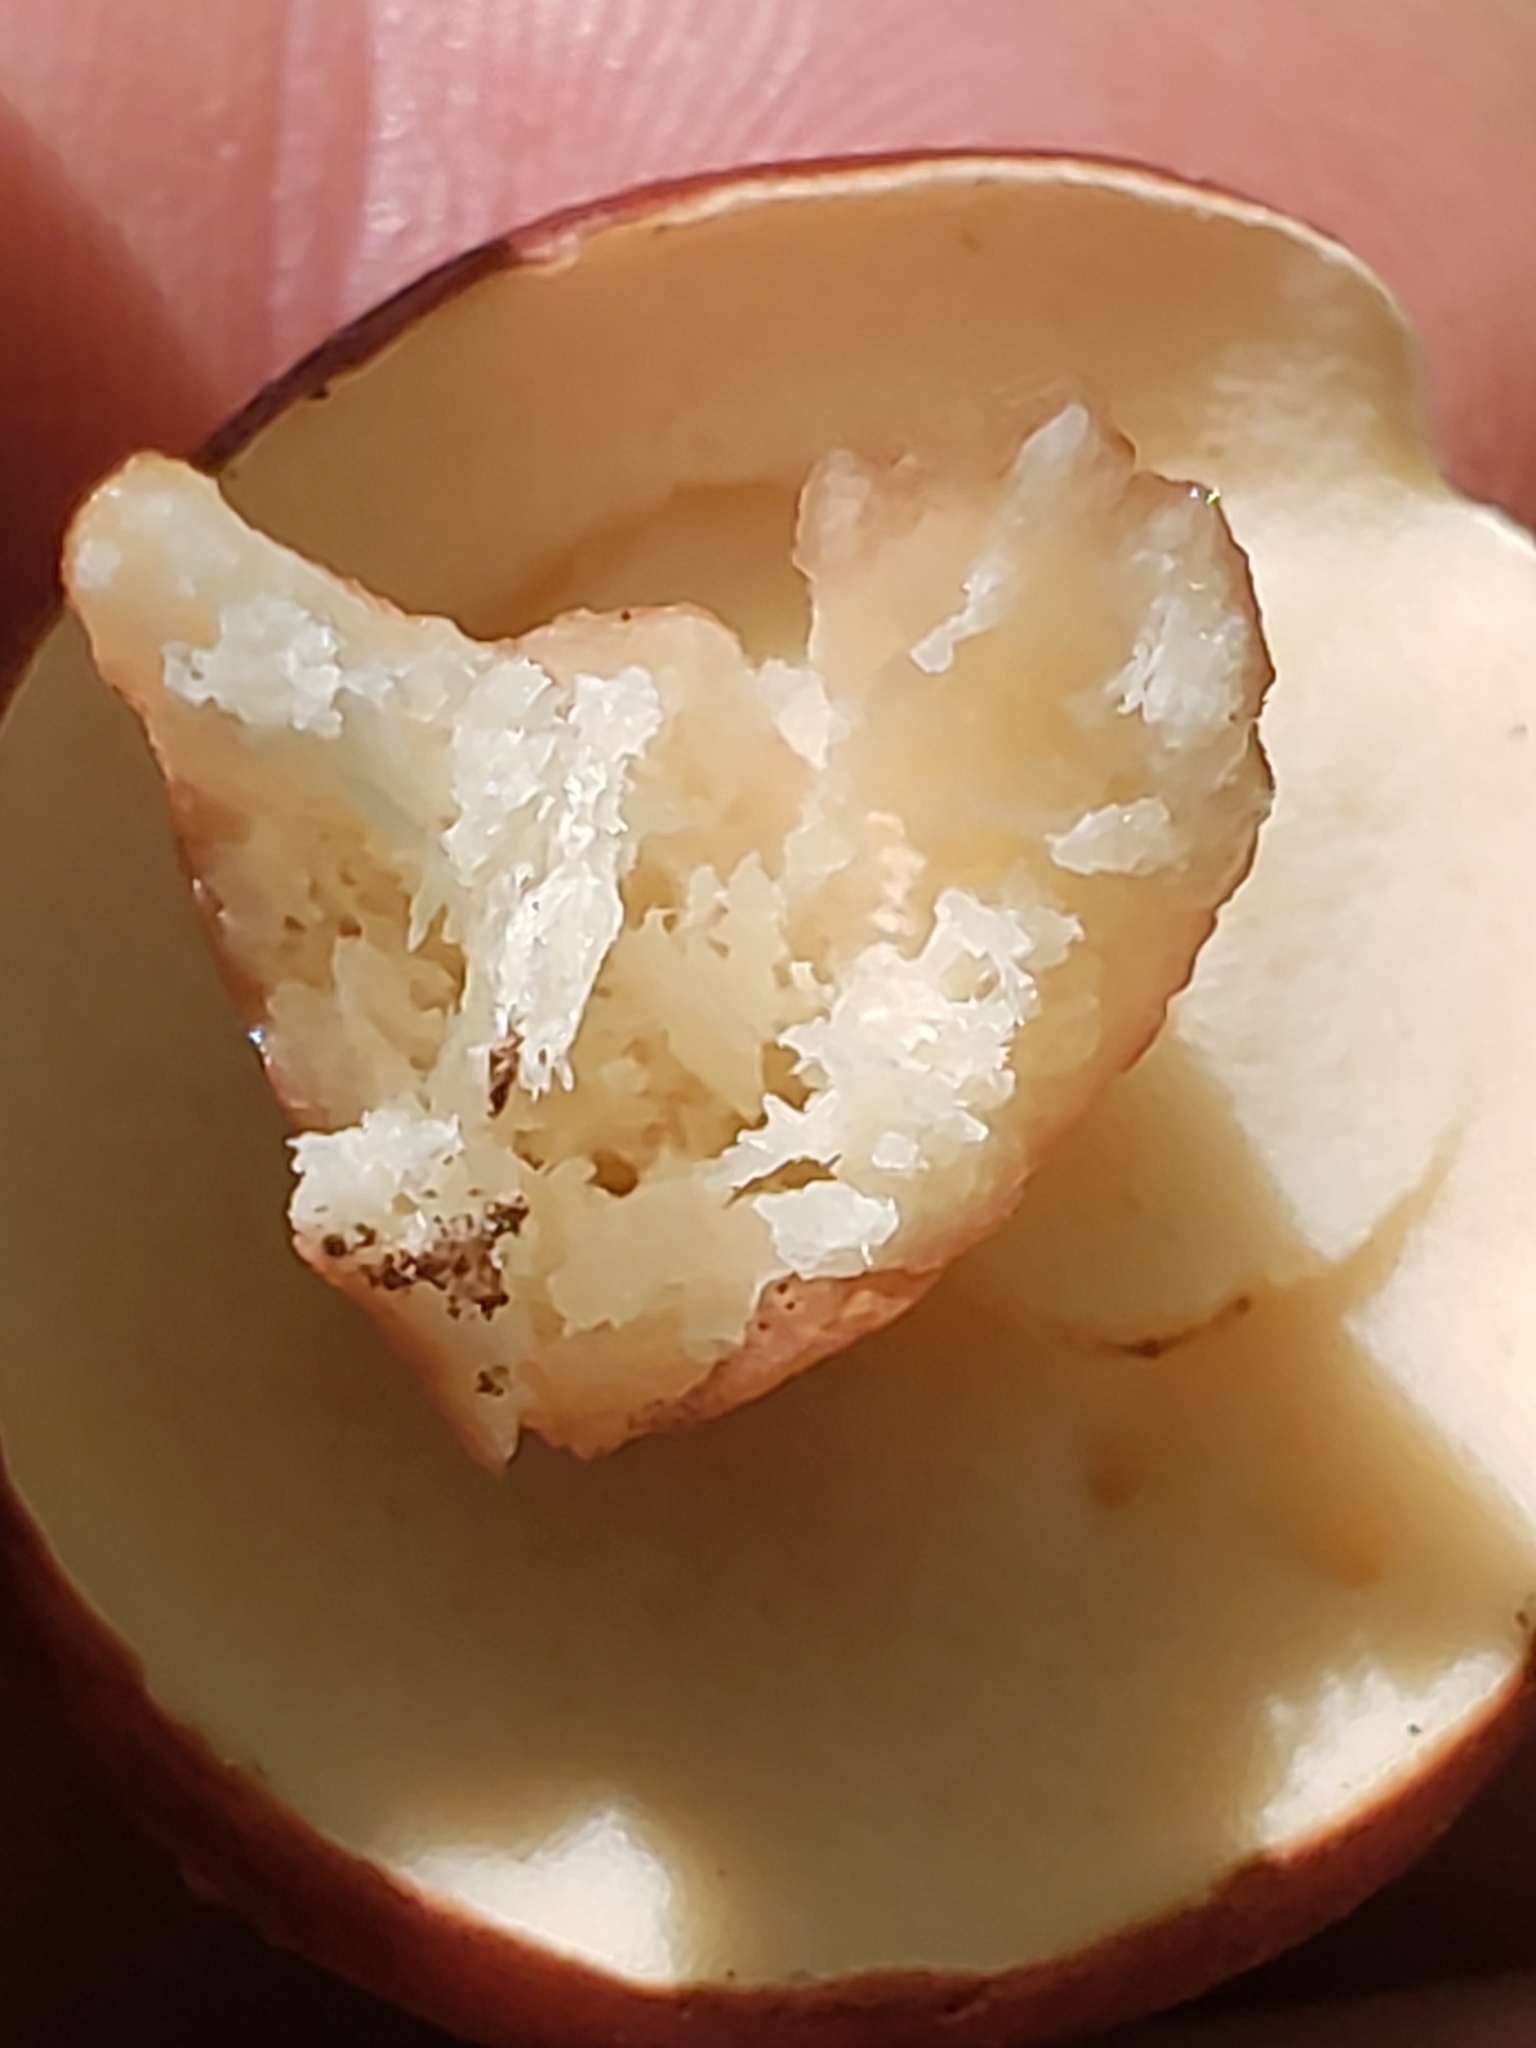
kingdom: Fungi
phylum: Basidiomycota
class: Agaricomycetes
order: Boletales
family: Boletaceae
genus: Tylopilus
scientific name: Tylopilus rubrobrunneus
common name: Reddish brown bitter bolete
